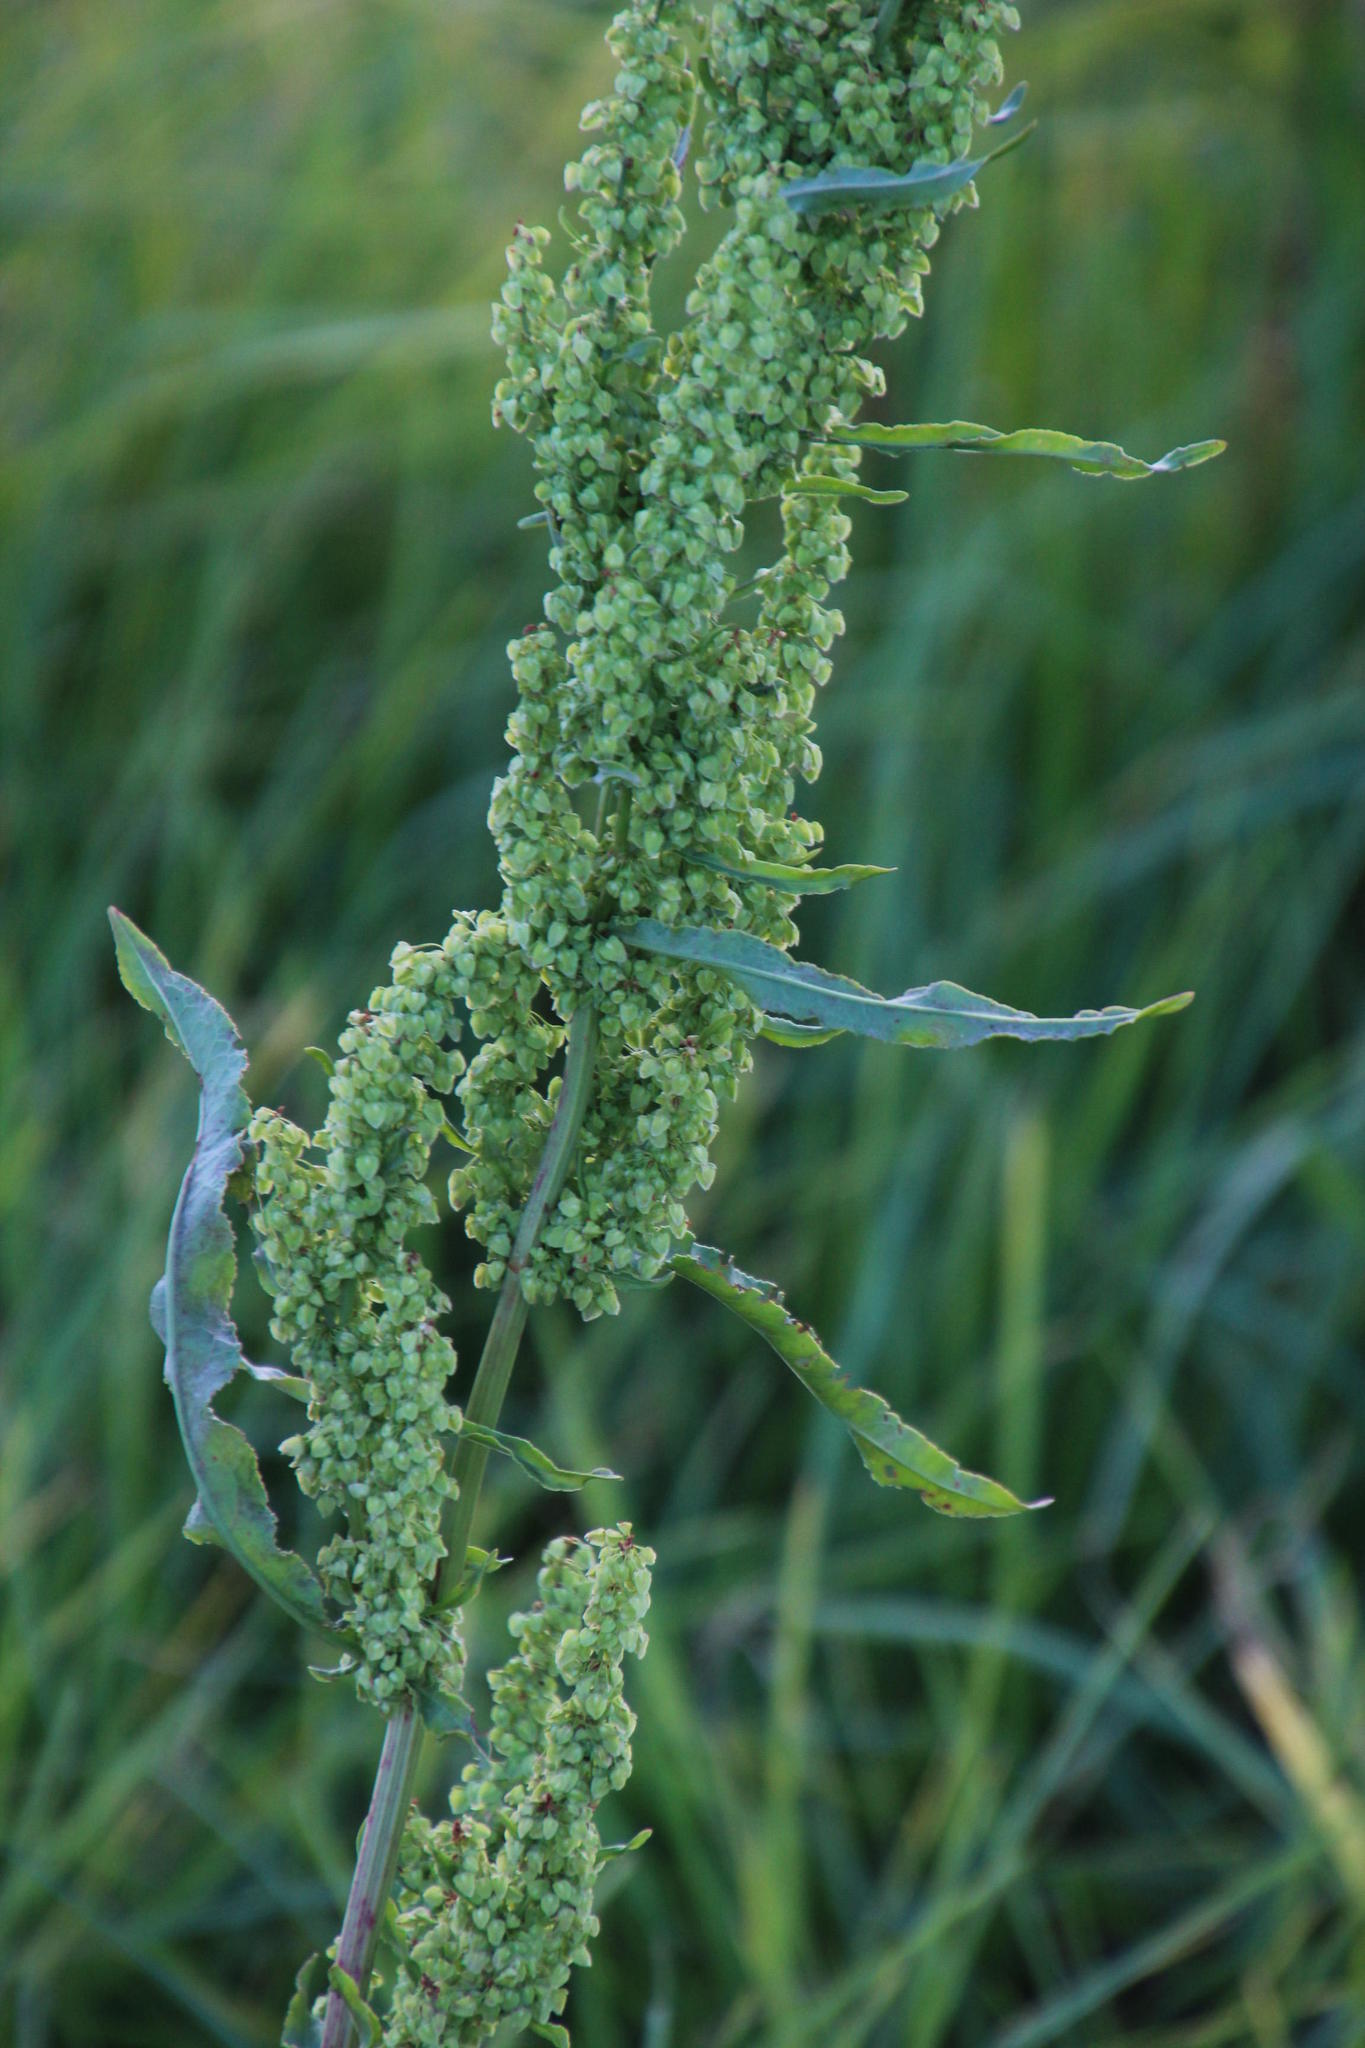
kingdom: Plantae
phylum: Tracheophyta
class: Magnoliopsida
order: Caryophyllales
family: Polygonaceae
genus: Rumex
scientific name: Rumex crispus
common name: Curled dock
